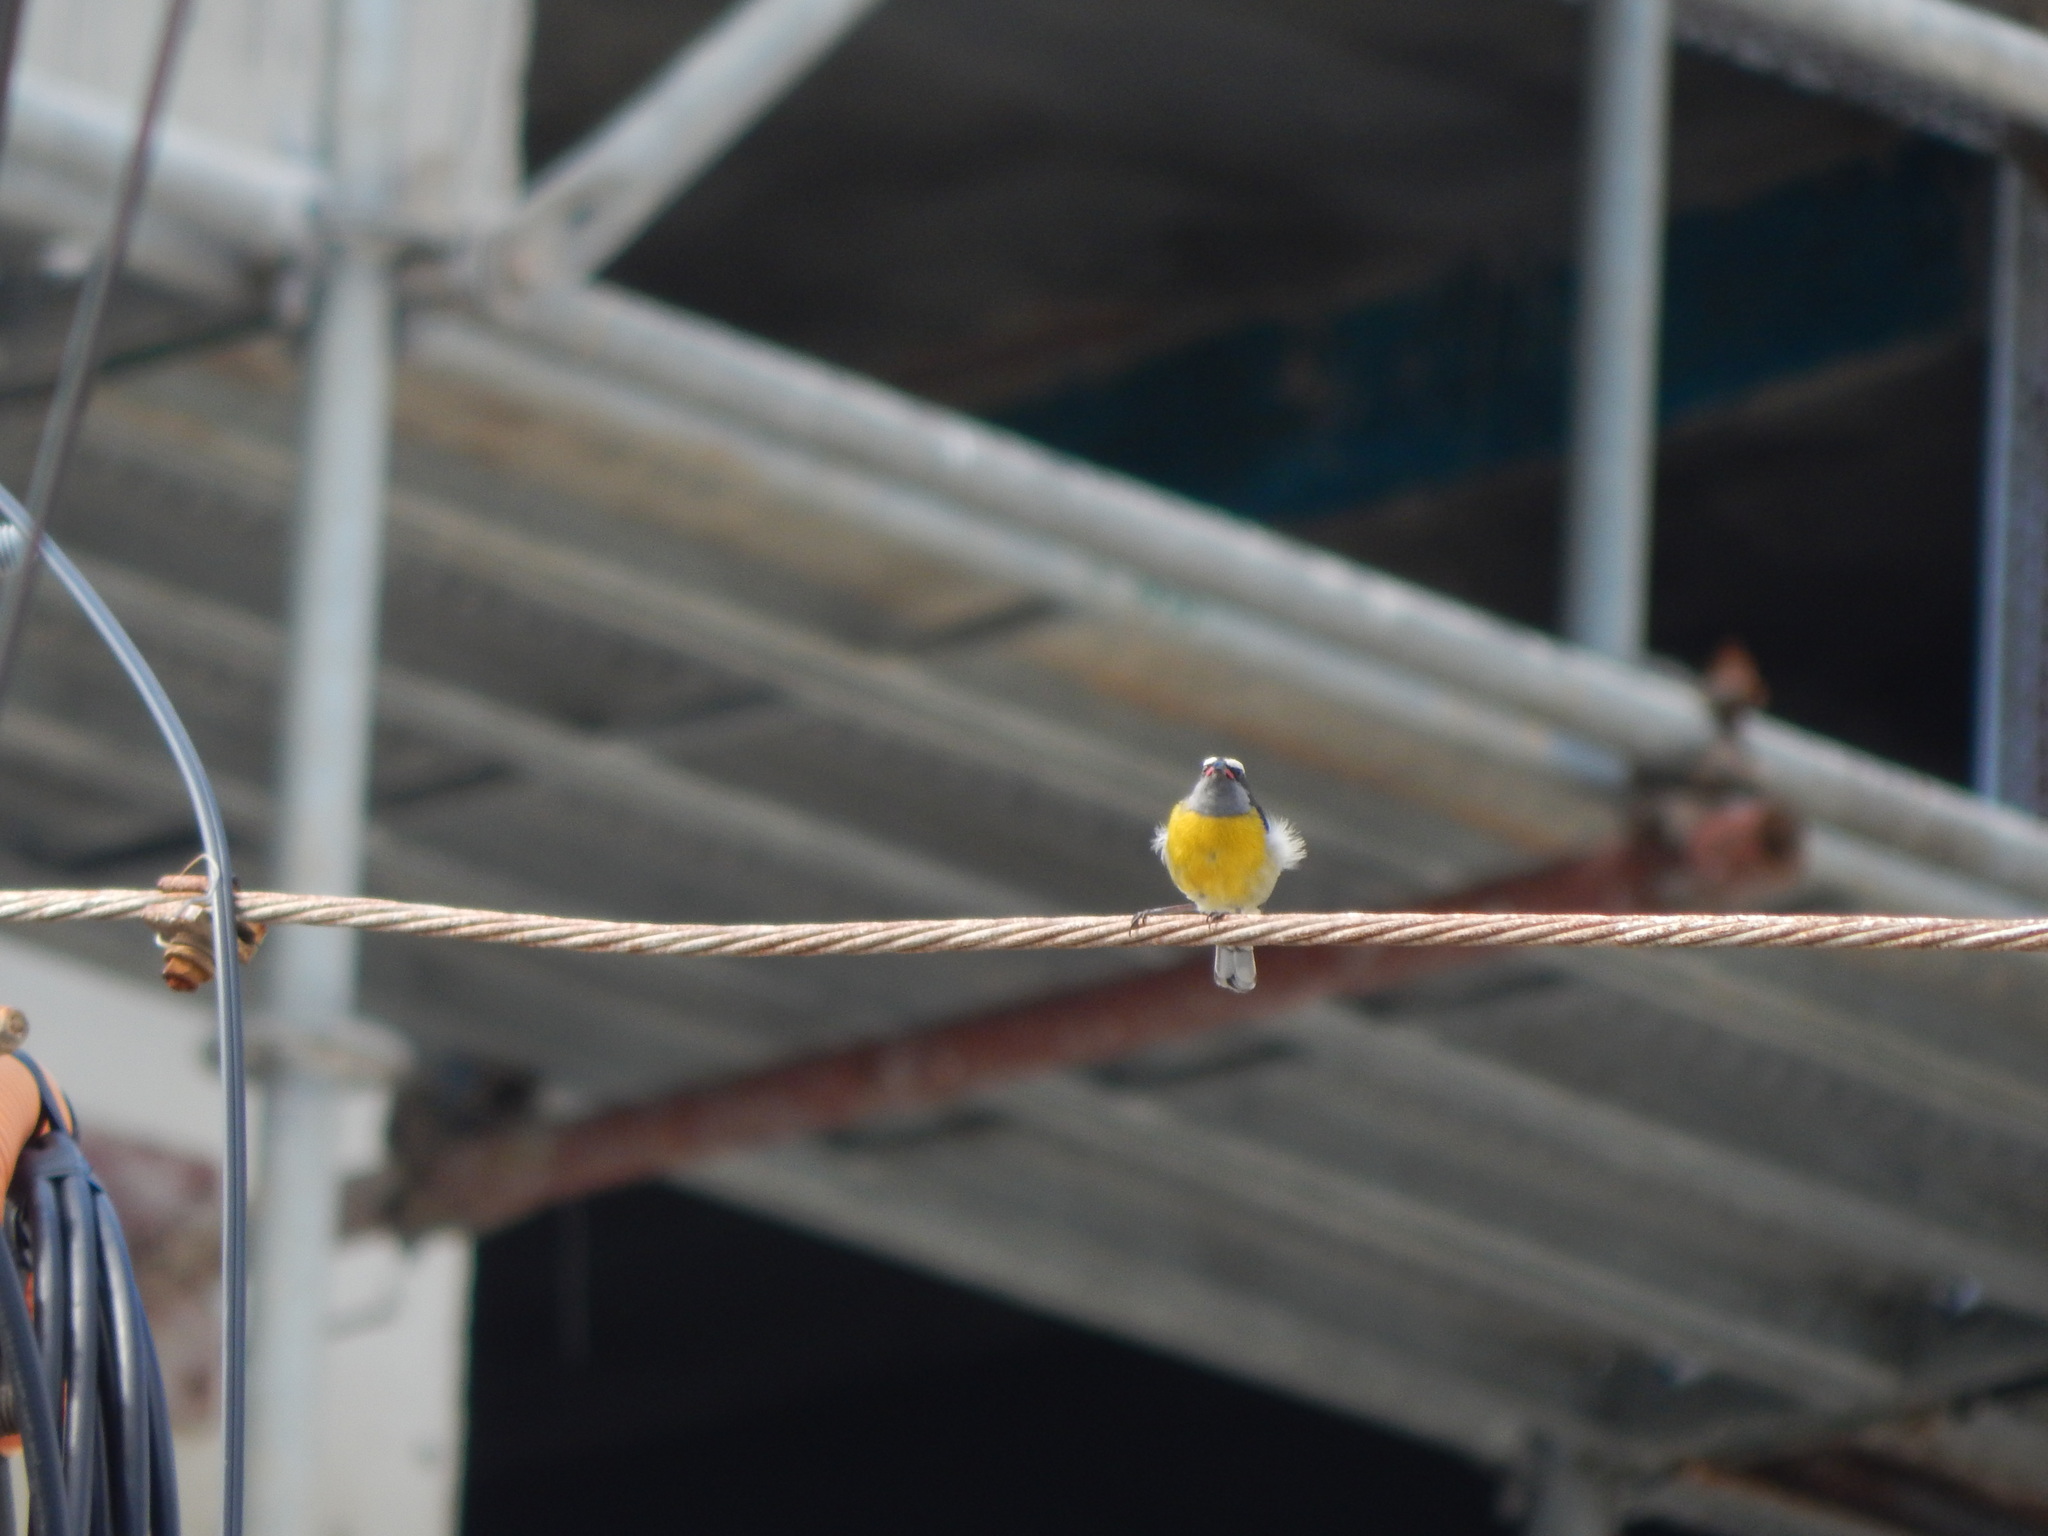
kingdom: Animalia
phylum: Chordata
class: Aves
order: Passeriformes
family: Thraupidae
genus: Coereba
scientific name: Coereba flaveola
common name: Bananaquit
